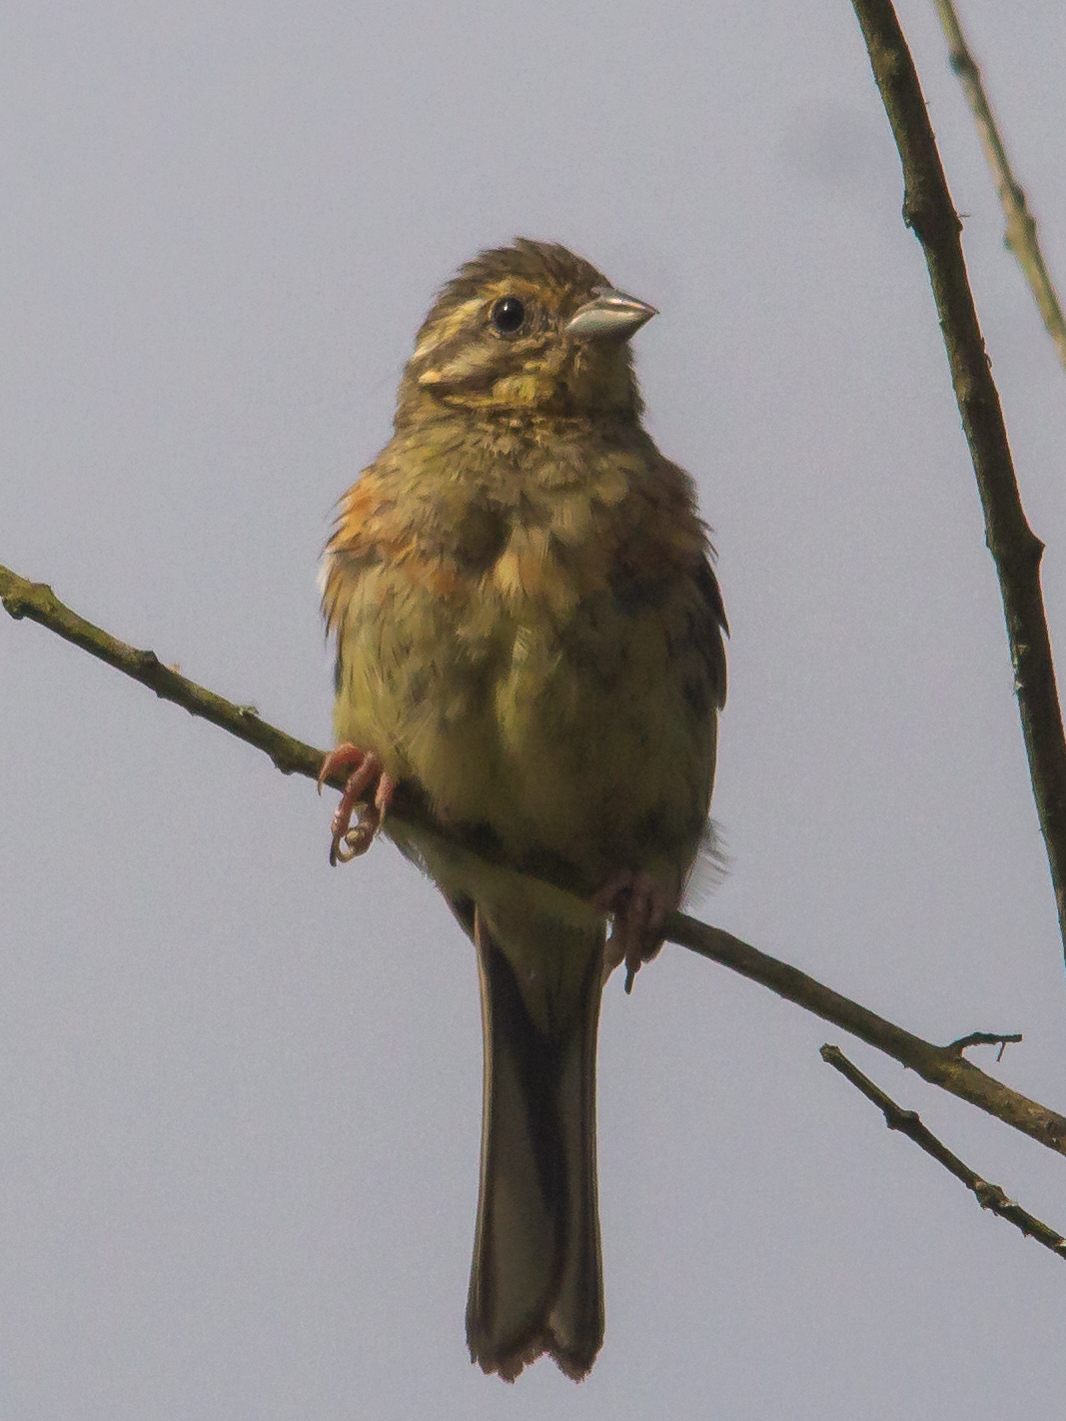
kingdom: Animalia
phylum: Chordata
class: Aves
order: Passeriformes
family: Emberizidae
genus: Emberiza
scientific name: Emberiza cirlus
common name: Cirl bunting
